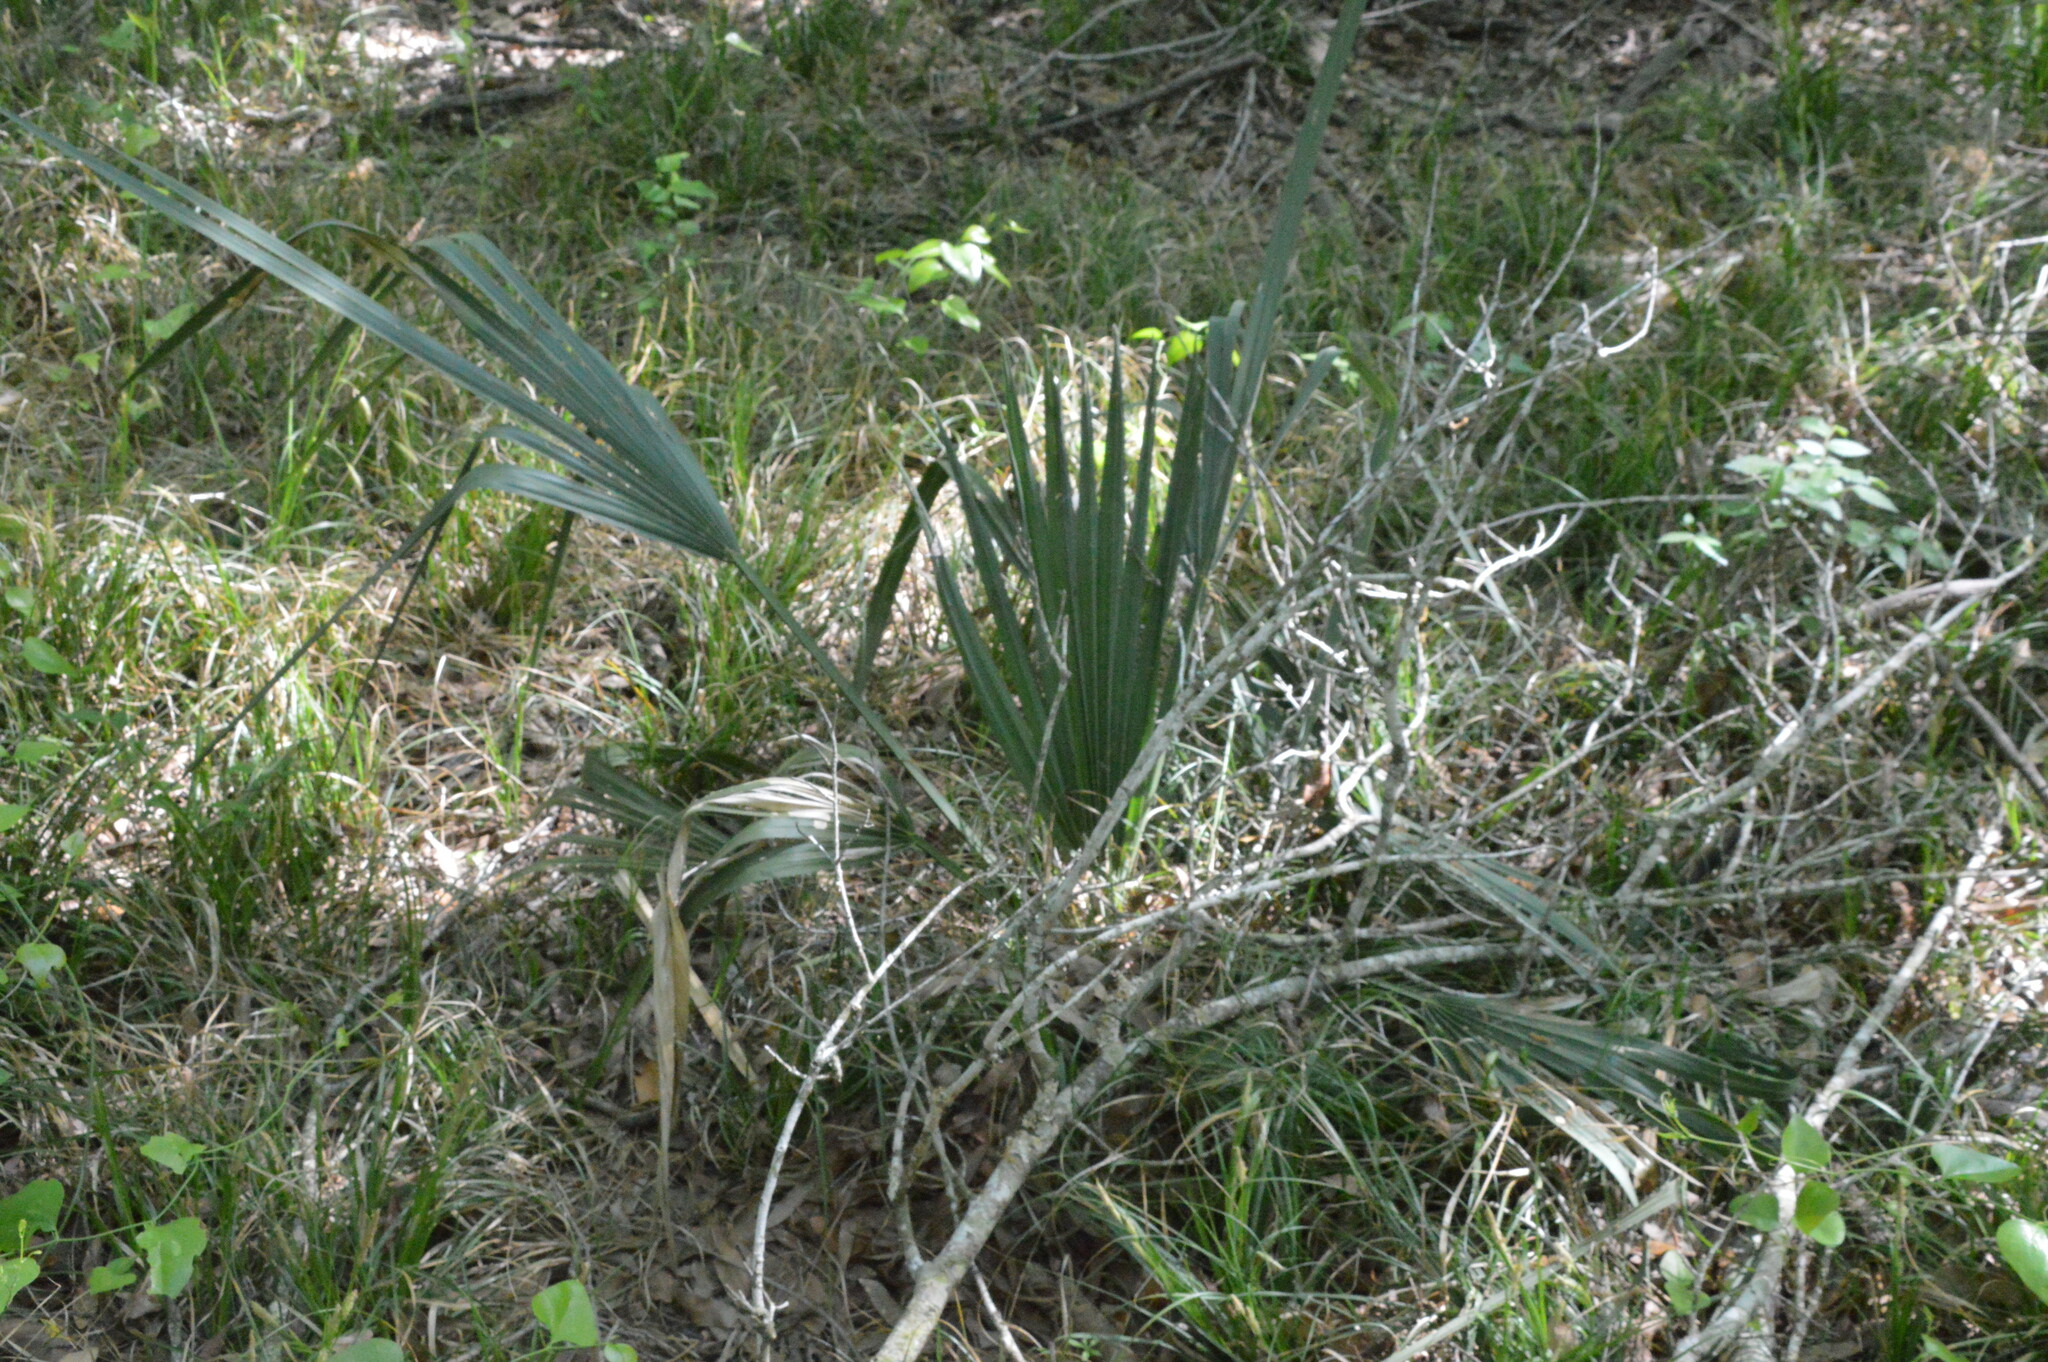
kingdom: Plantae
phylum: Tracheophyta
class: Liliopsida
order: Arecales
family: Arecaceae
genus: Sabal
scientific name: Sabal minor
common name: Dwarf palmetto
